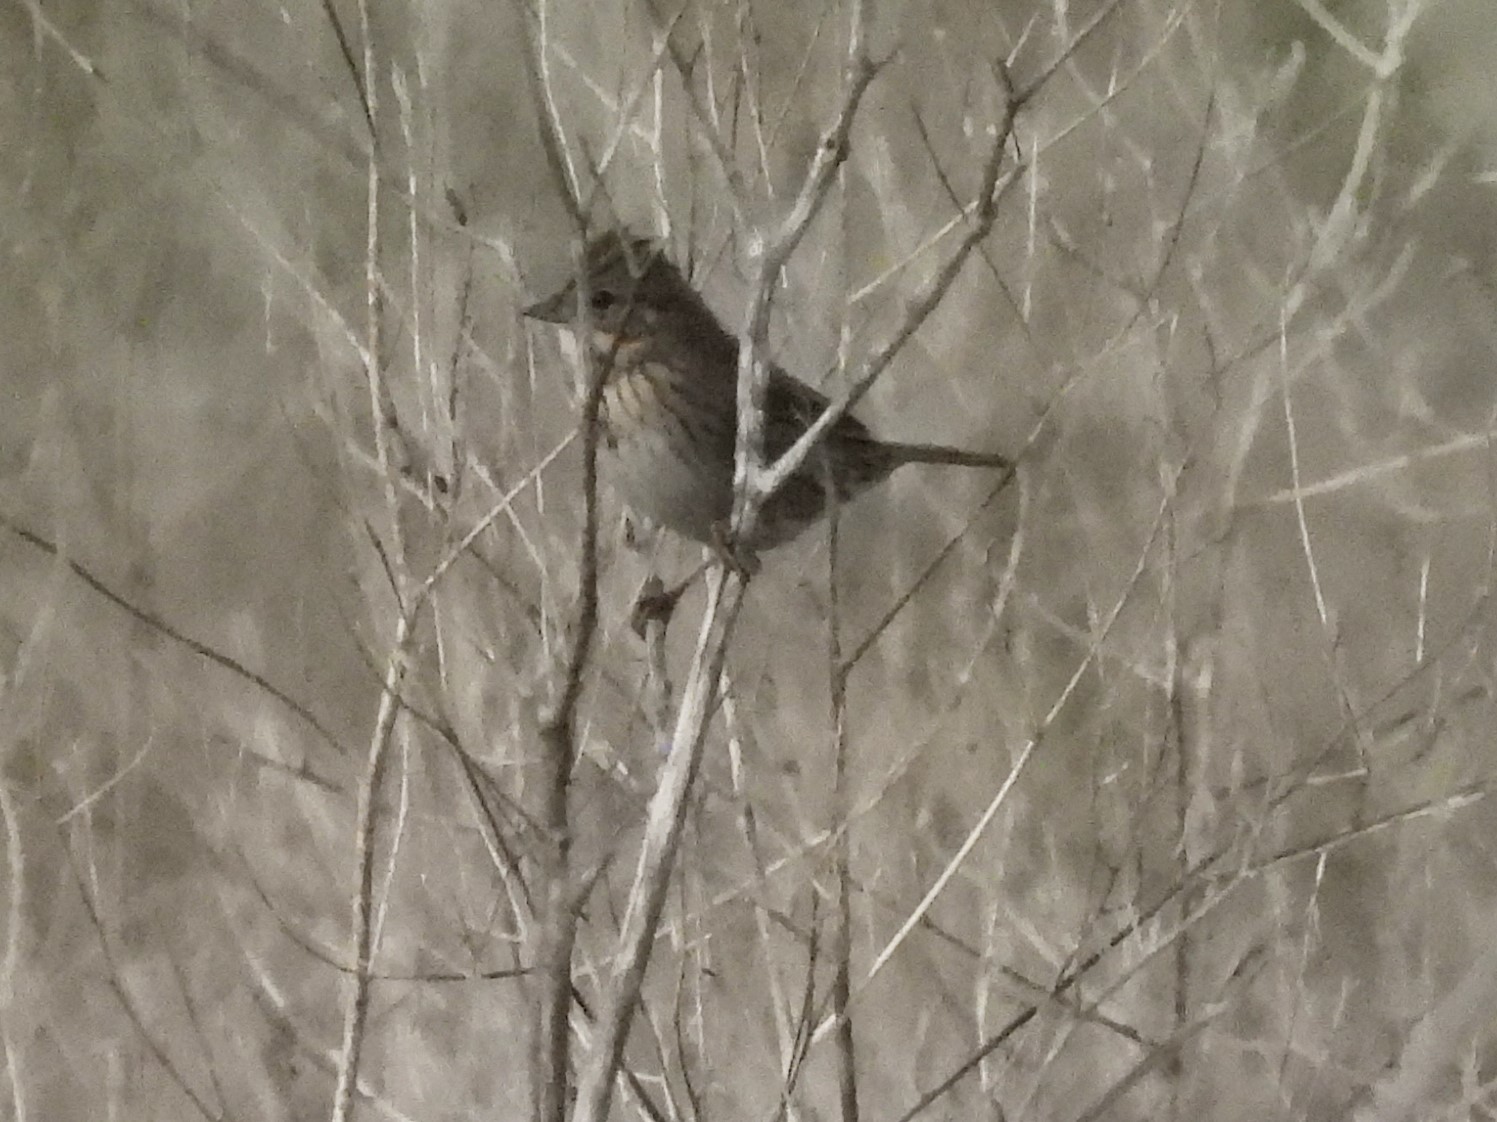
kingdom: Animalia
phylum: Chordata
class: Aves
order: Passeriformes
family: Passerellidae
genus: Melospiza
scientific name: Melospiza lincolnii
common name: Lincoln's sparrow
